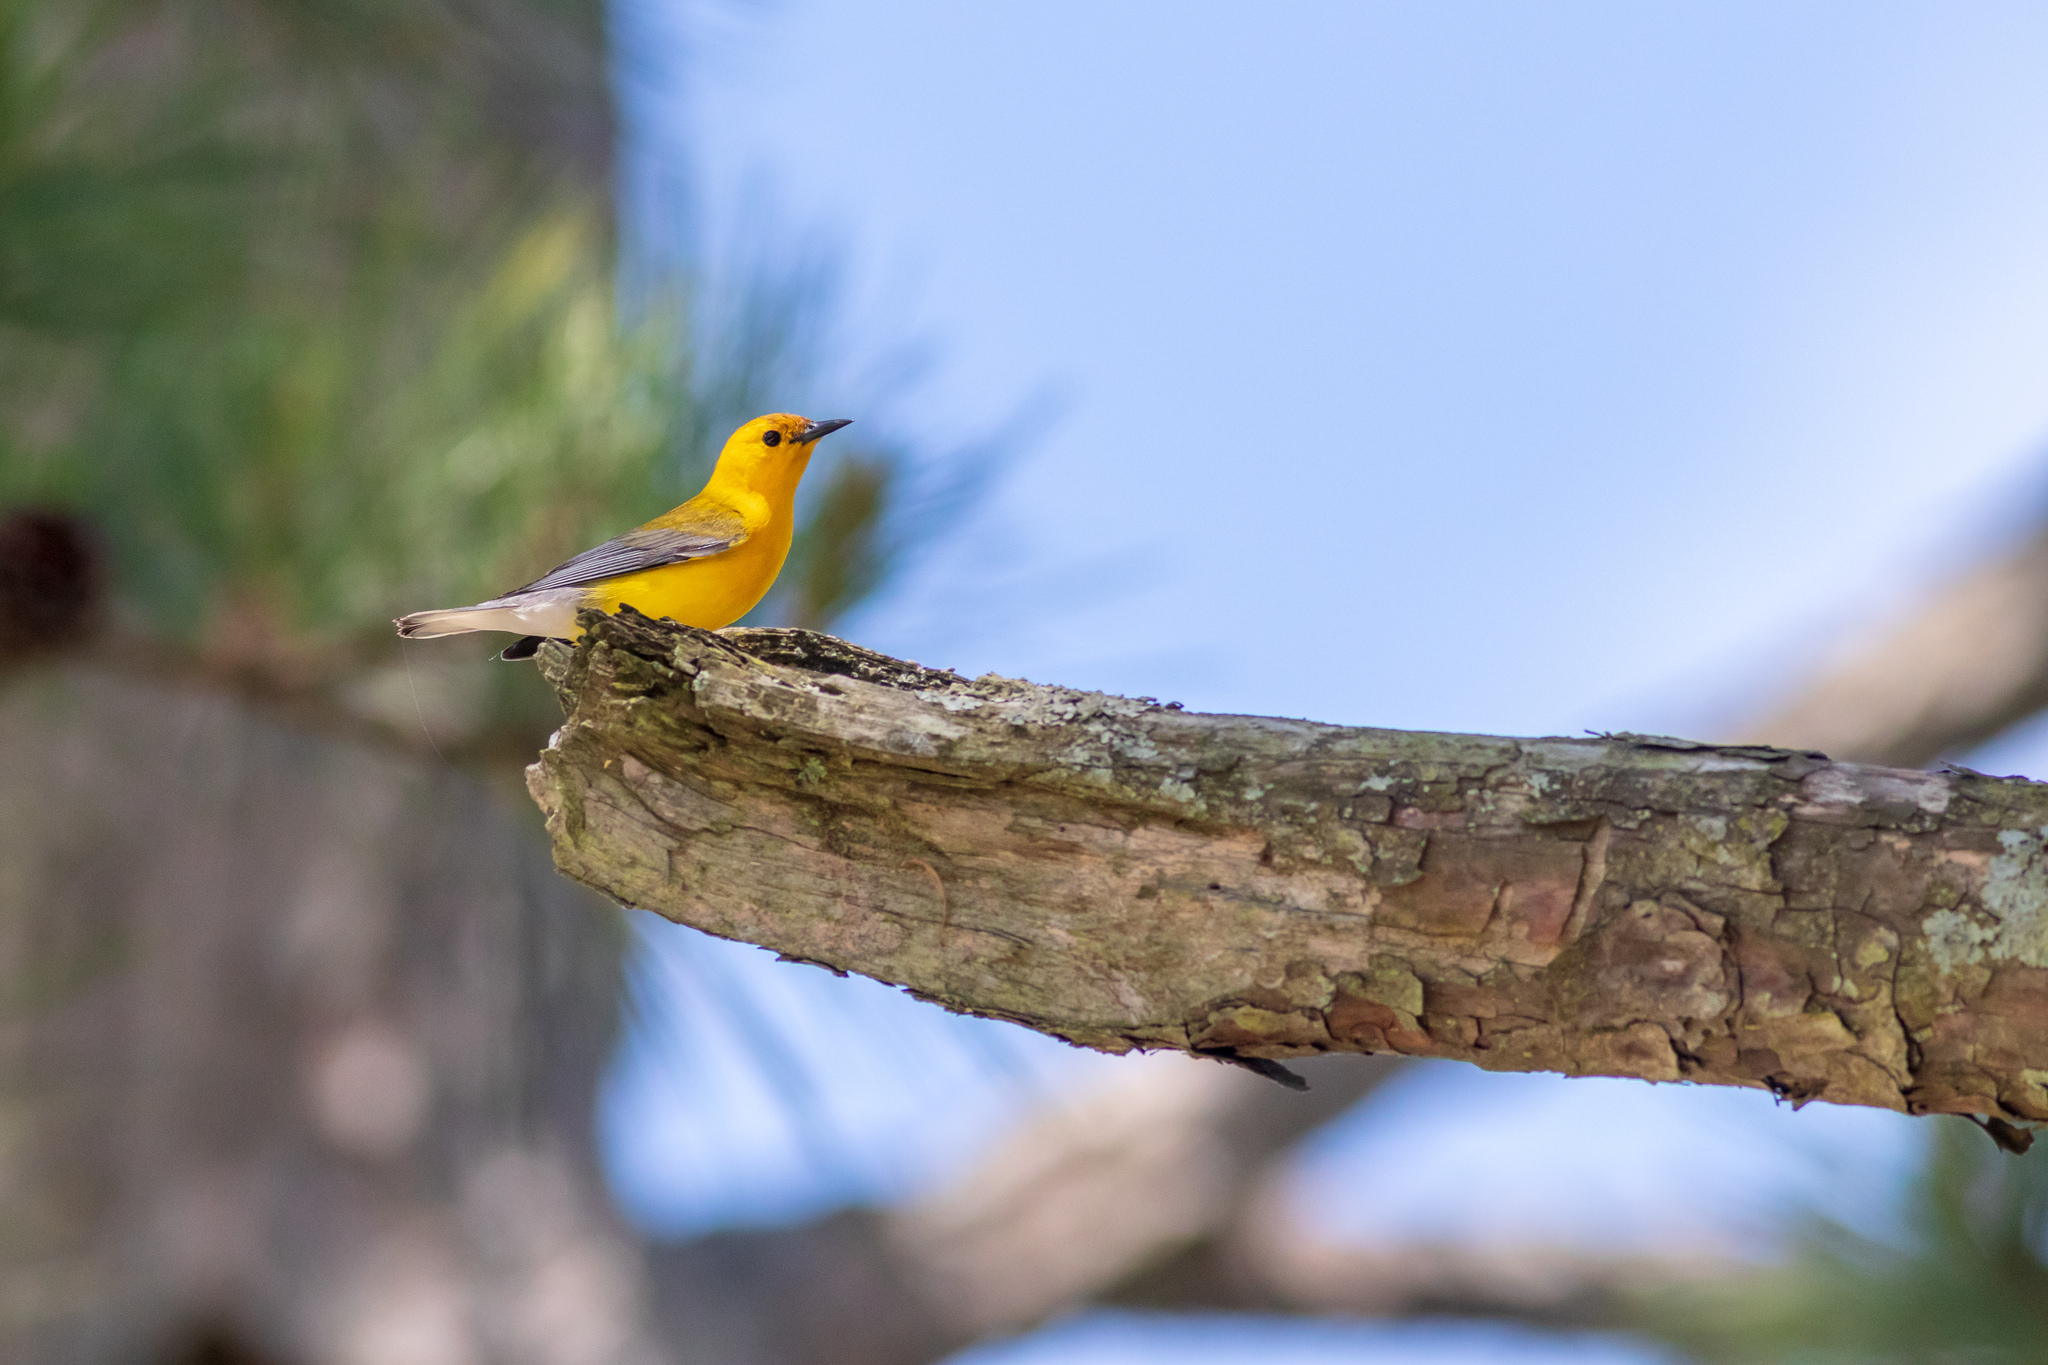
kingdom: Animalia
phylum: Chordata
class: Aves
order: Passeriformes
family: Parulidae
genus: Protonotaria
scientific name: Protonotaria citrea
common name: Prothonotary warbler
